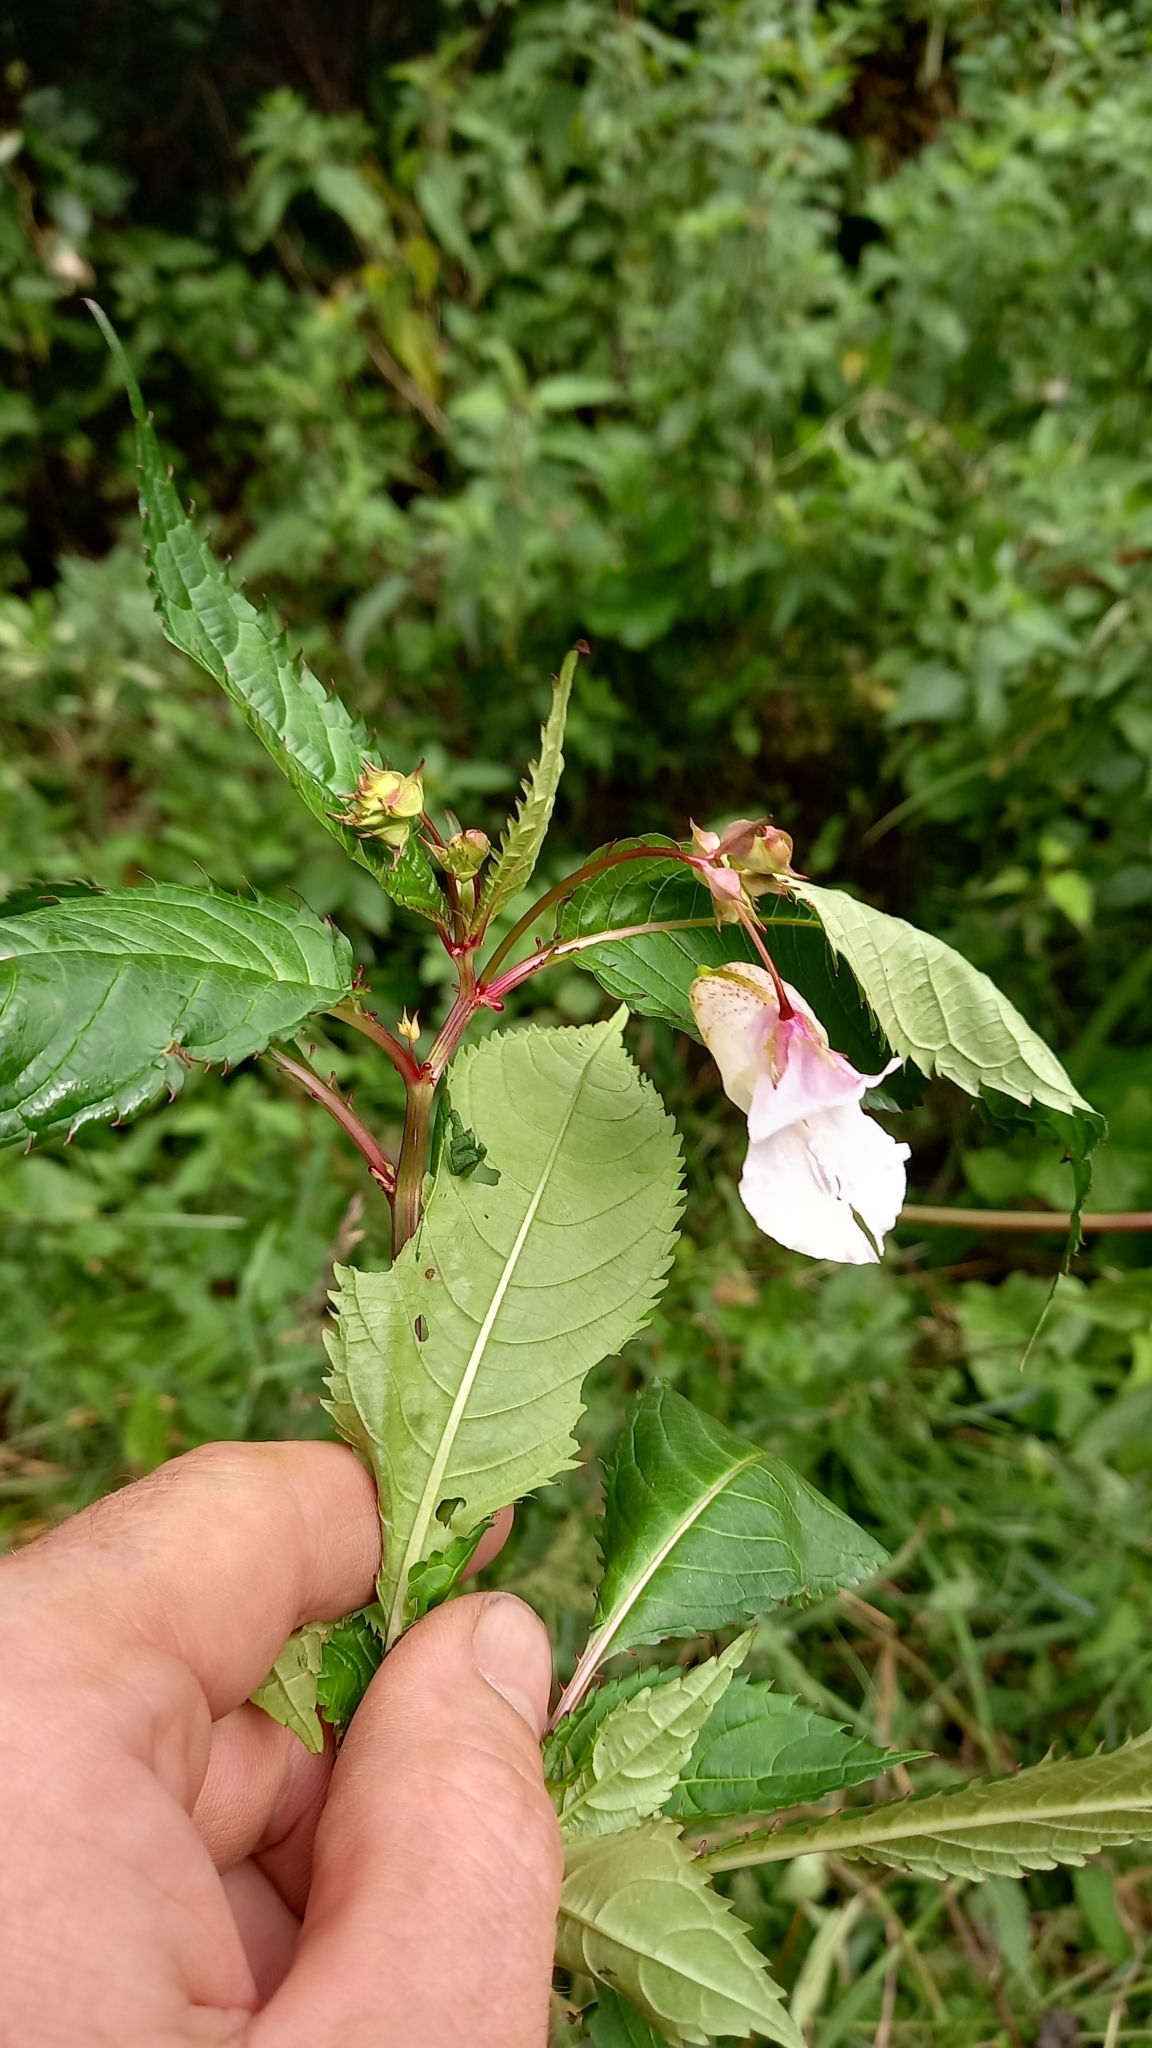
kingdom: Plantae
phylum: Tracheophyta
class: Magnoliopsida
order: Ericales
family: Balsaminaceae
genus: Impatiens
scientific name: Impatiens glandulifera
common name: Himalayan balsam
